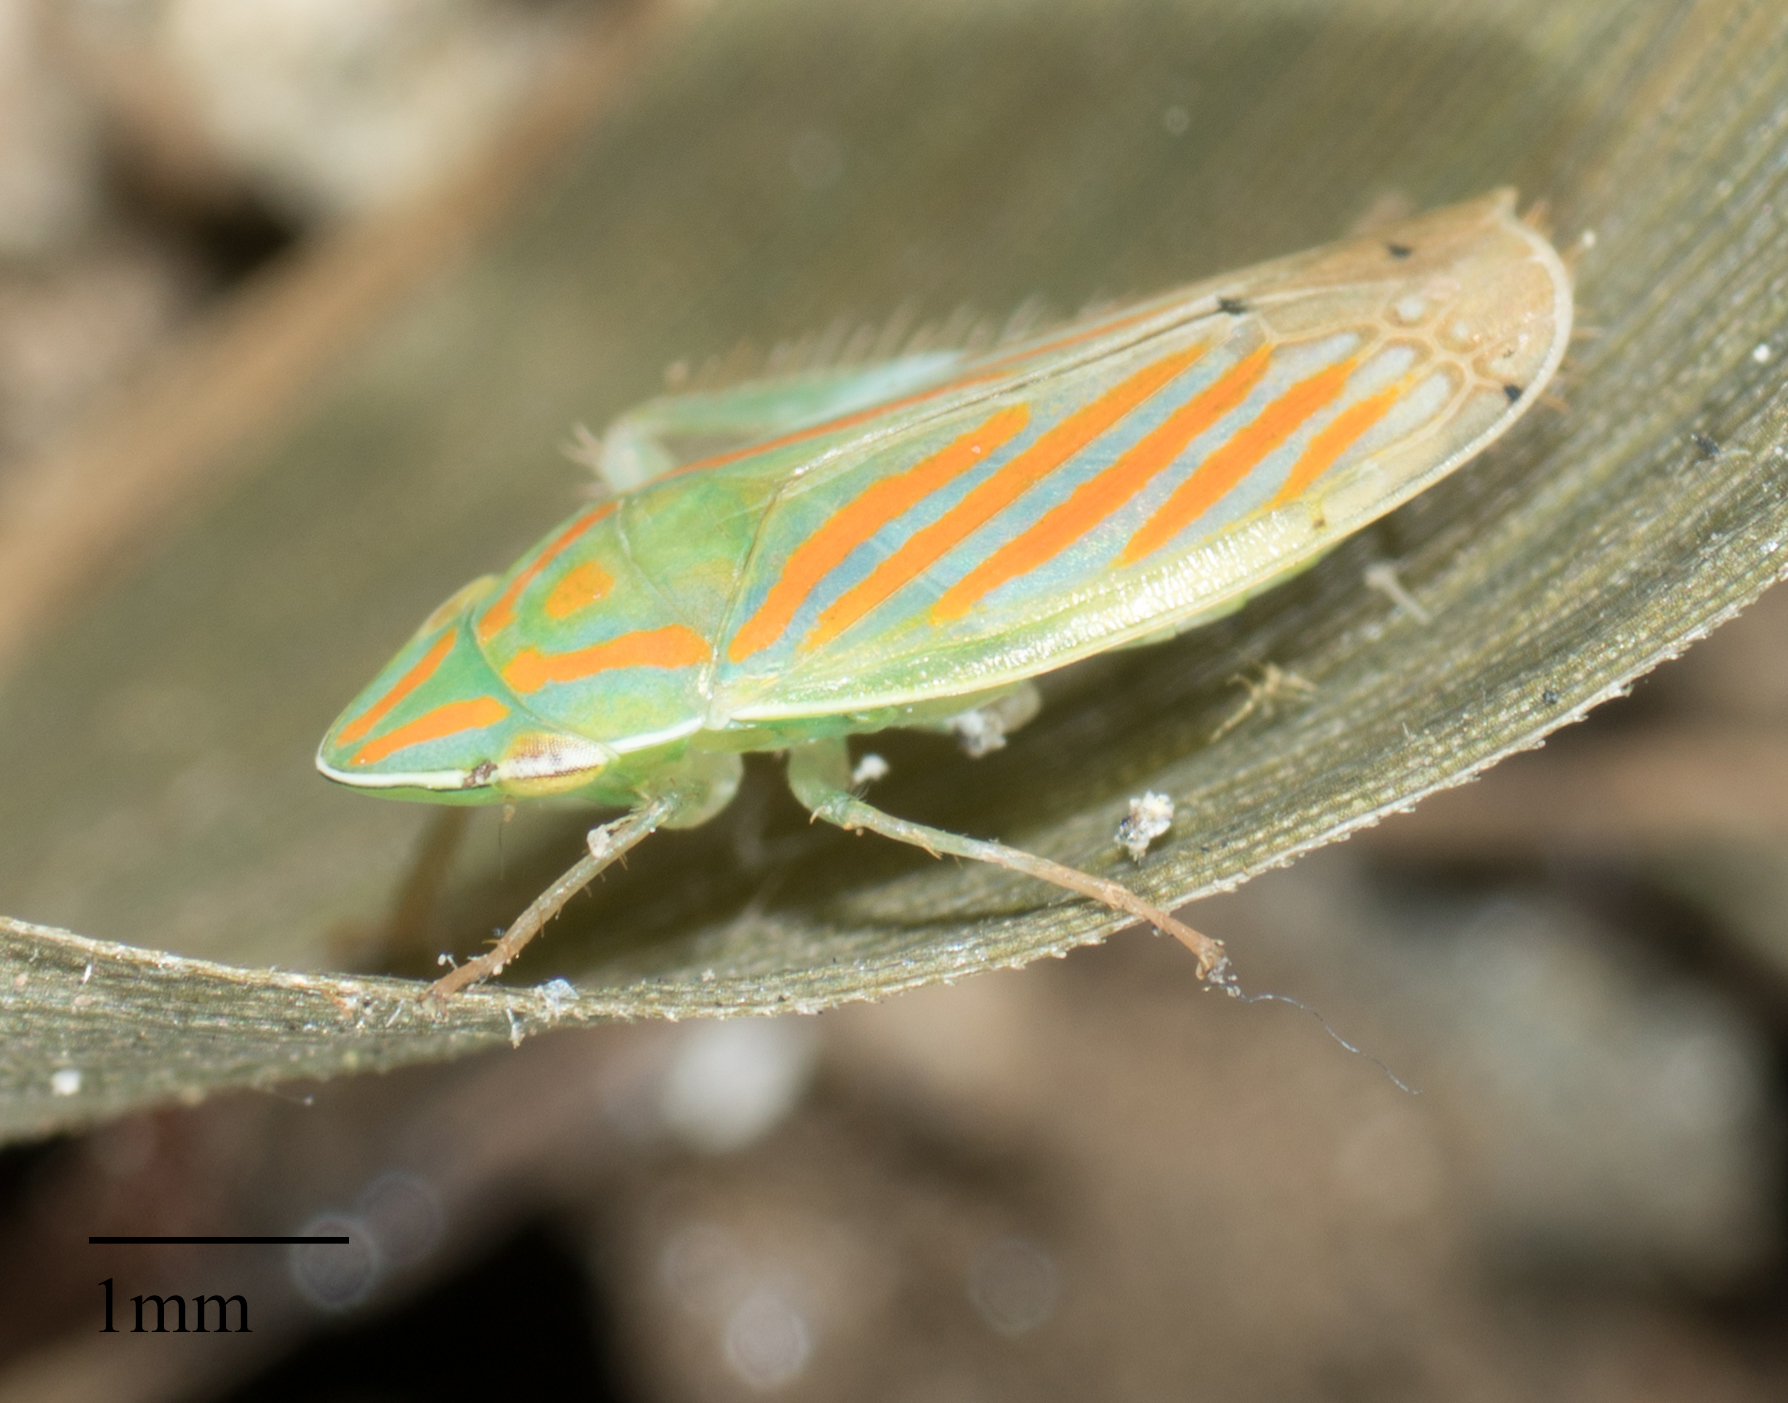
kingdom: Animalia
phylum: Arthropoda
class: Insecta
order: Hemiptera
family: Cicadellidae
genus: Spangbergiella
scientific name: Spangbergiella mexicana
